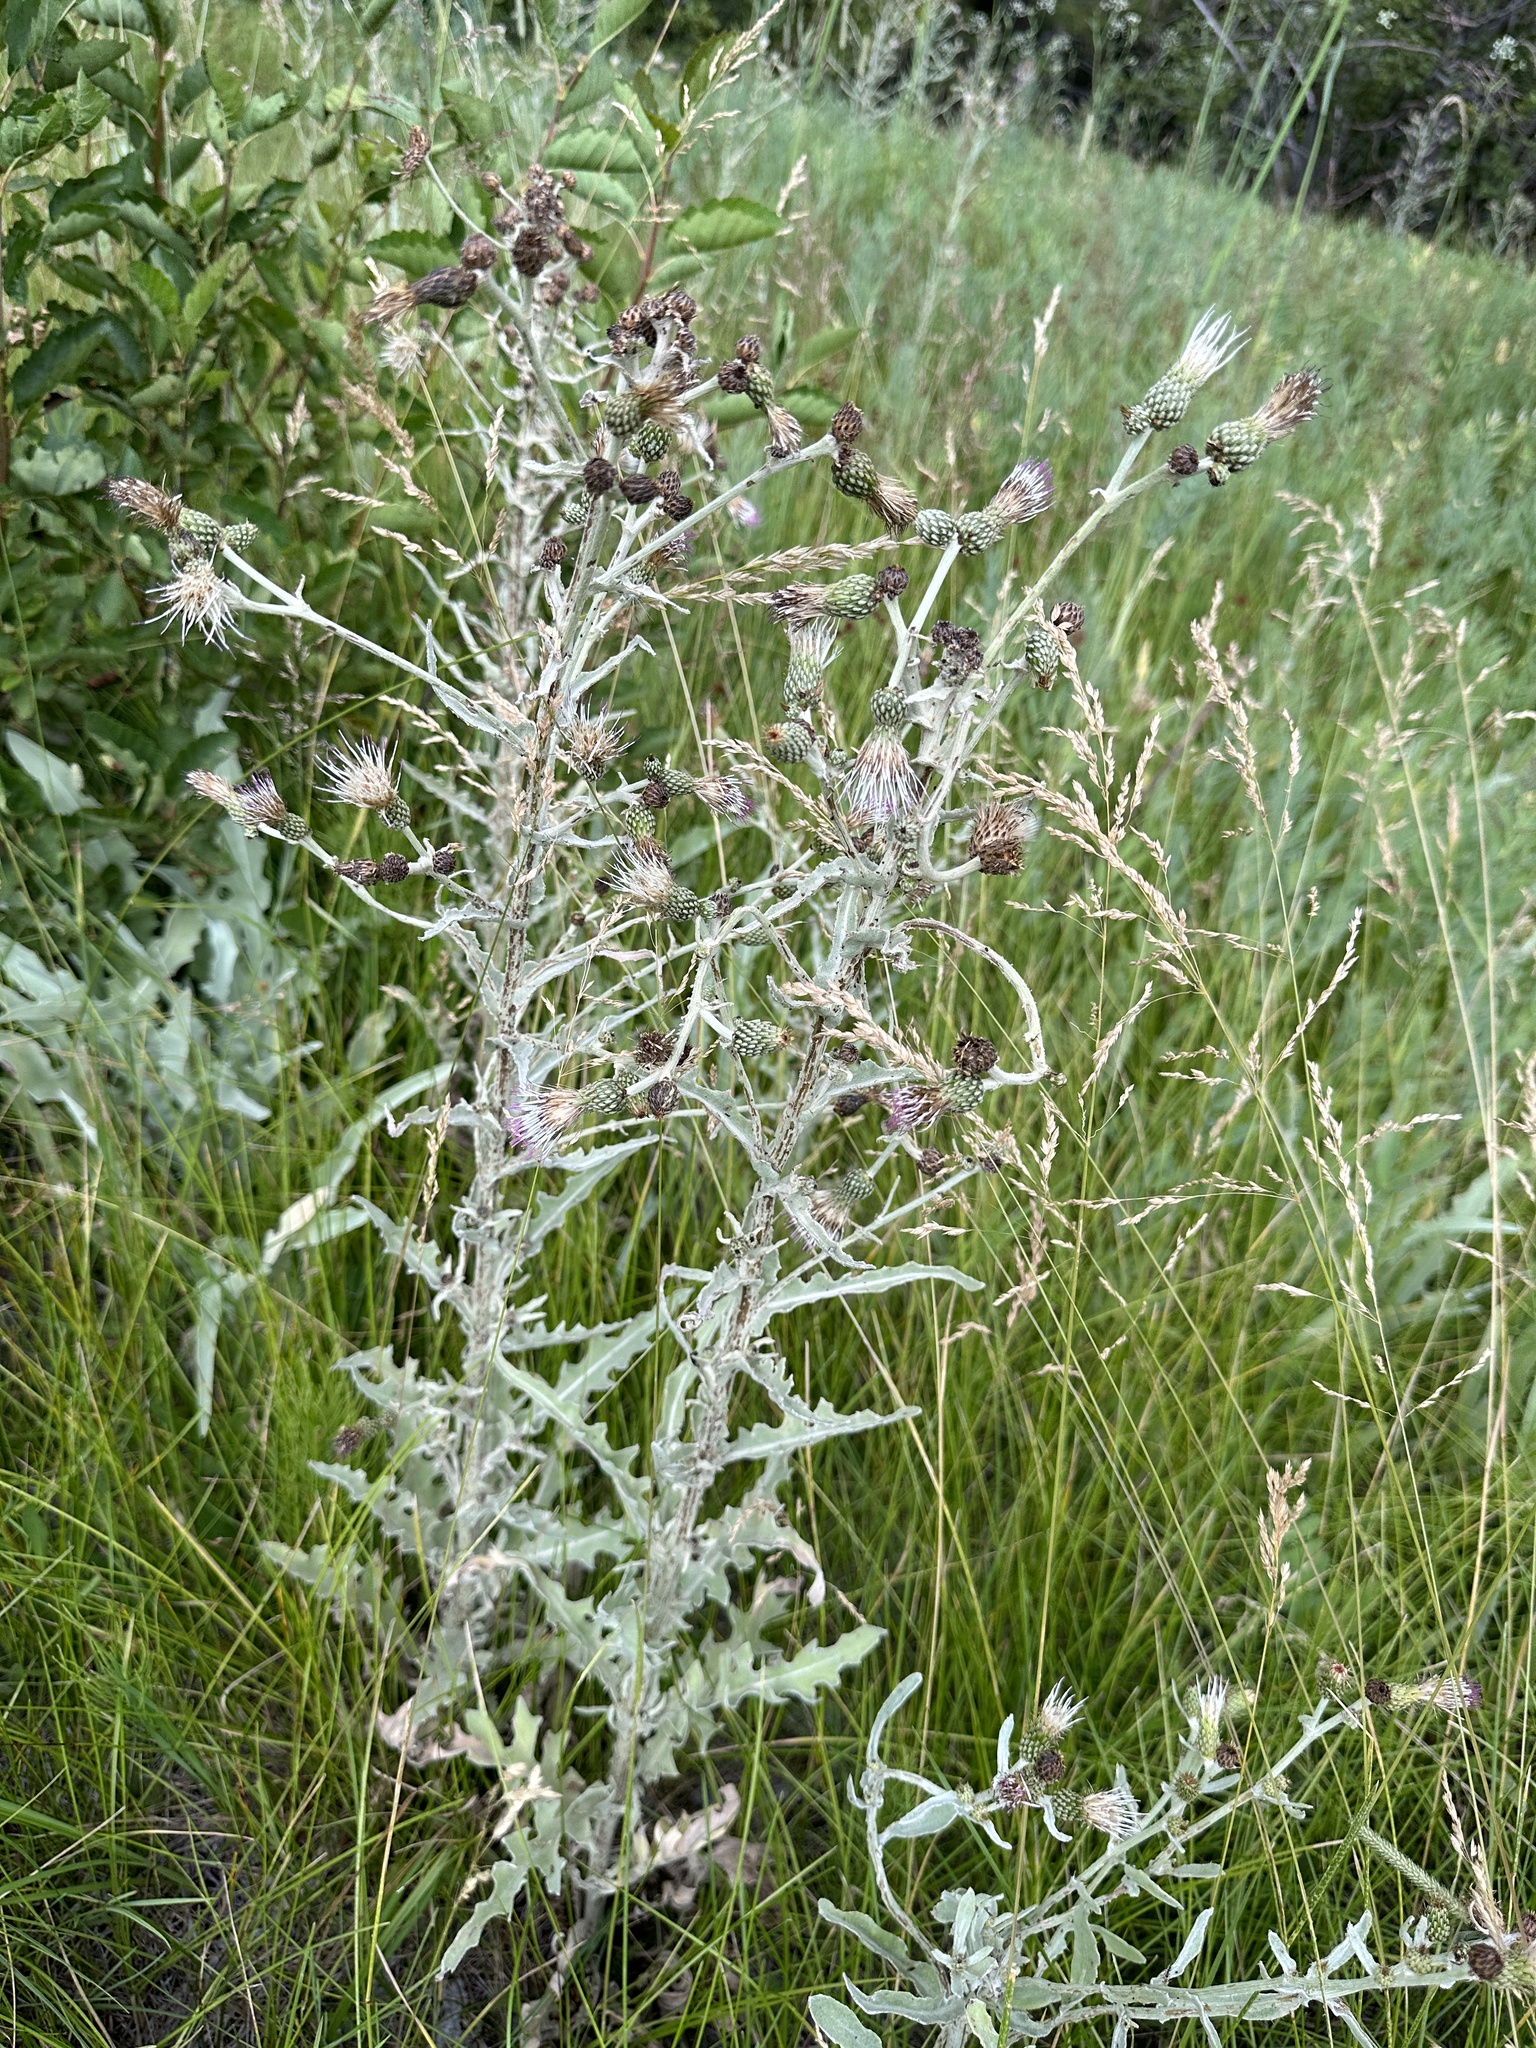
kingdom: Plantae
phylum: Tracheophyta
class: Magnoliopsida
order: Asterales
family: Asteraceae
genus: Cirsium
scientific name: Cirsium douglasii
